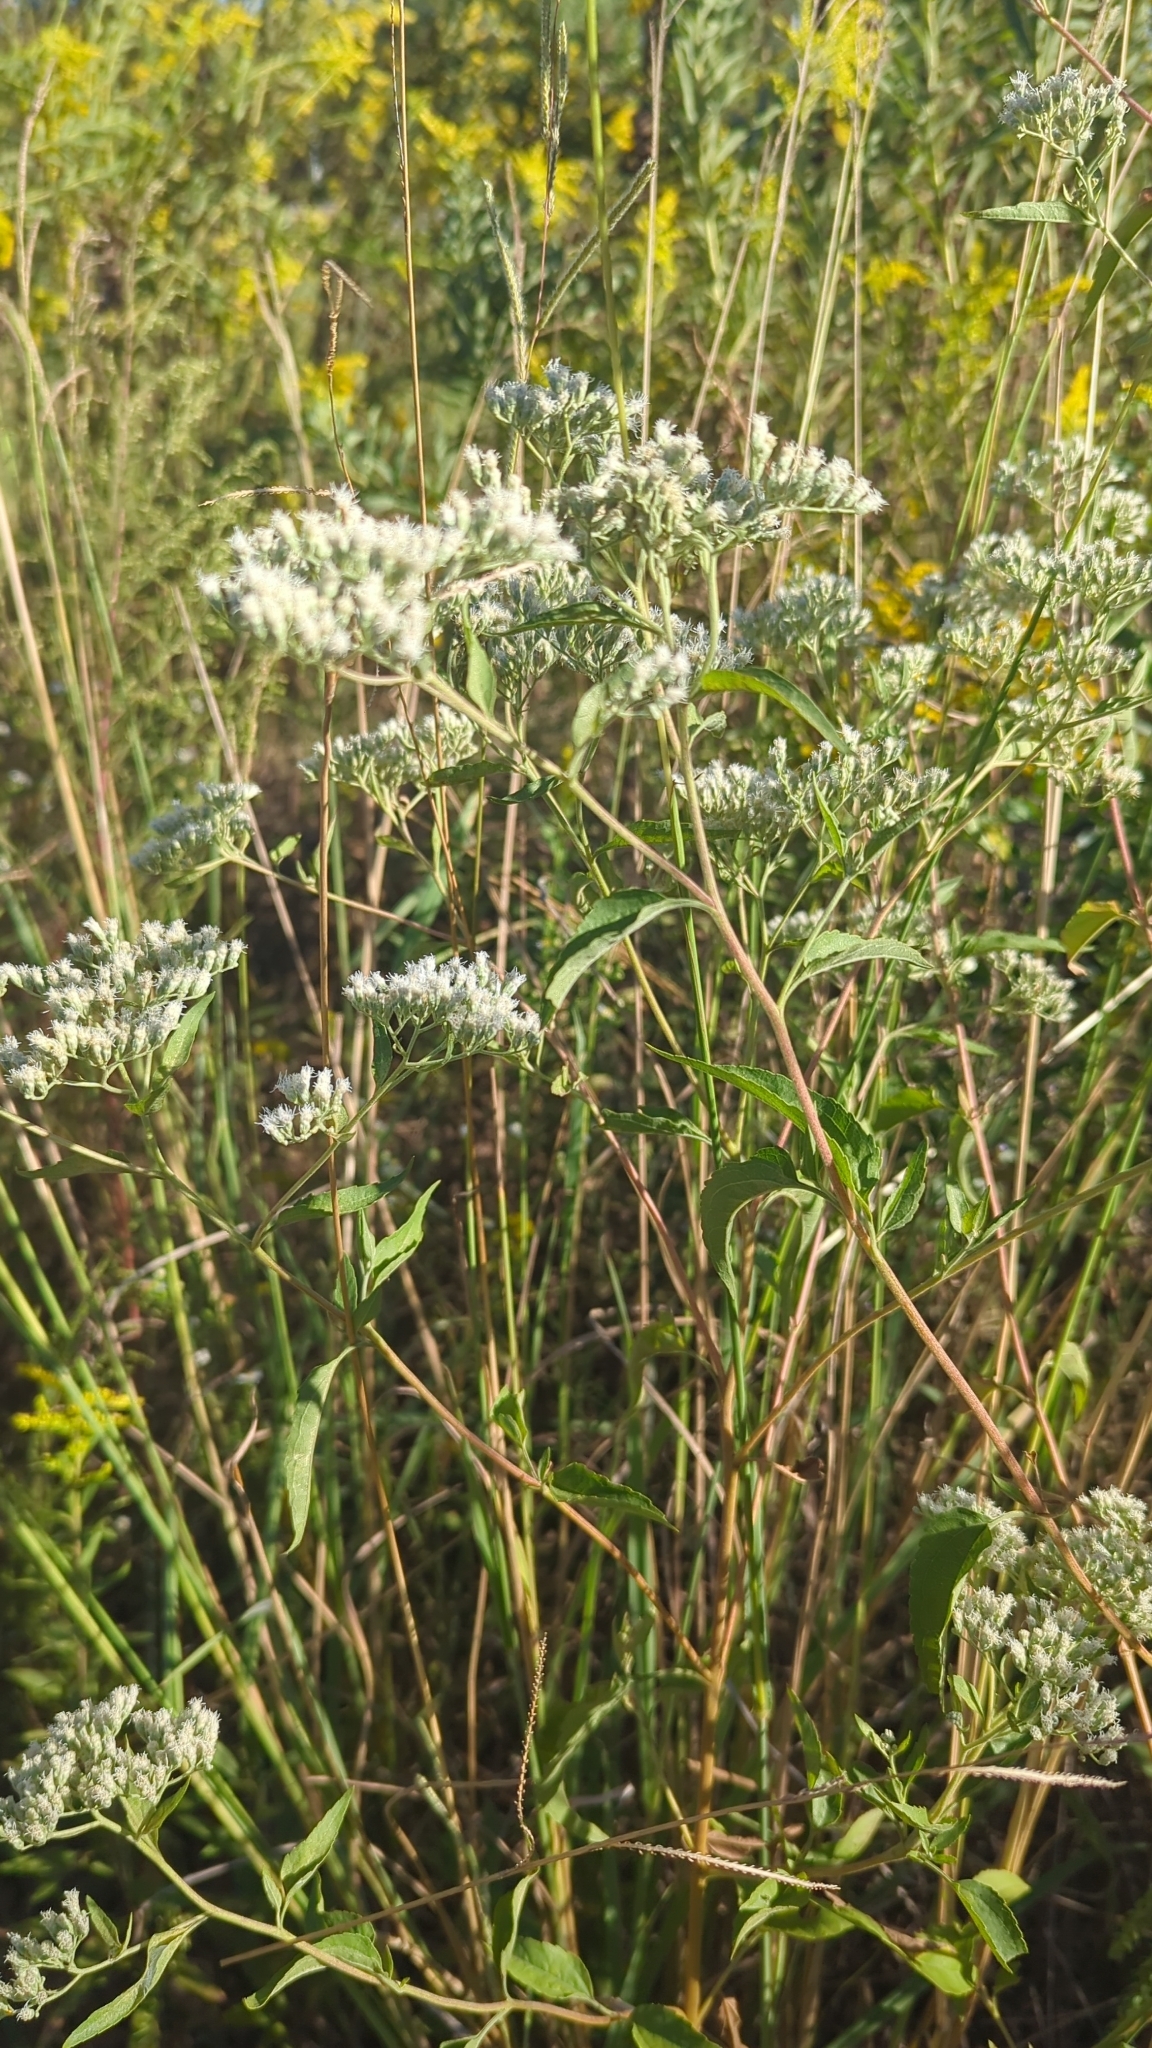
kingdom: Plantae
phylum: Tracheophyta
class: Magnoliopsida
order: Asterales
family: Asteraceae
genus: Eupatorium
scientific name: Eupatorium serotinum
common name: Late boneset
